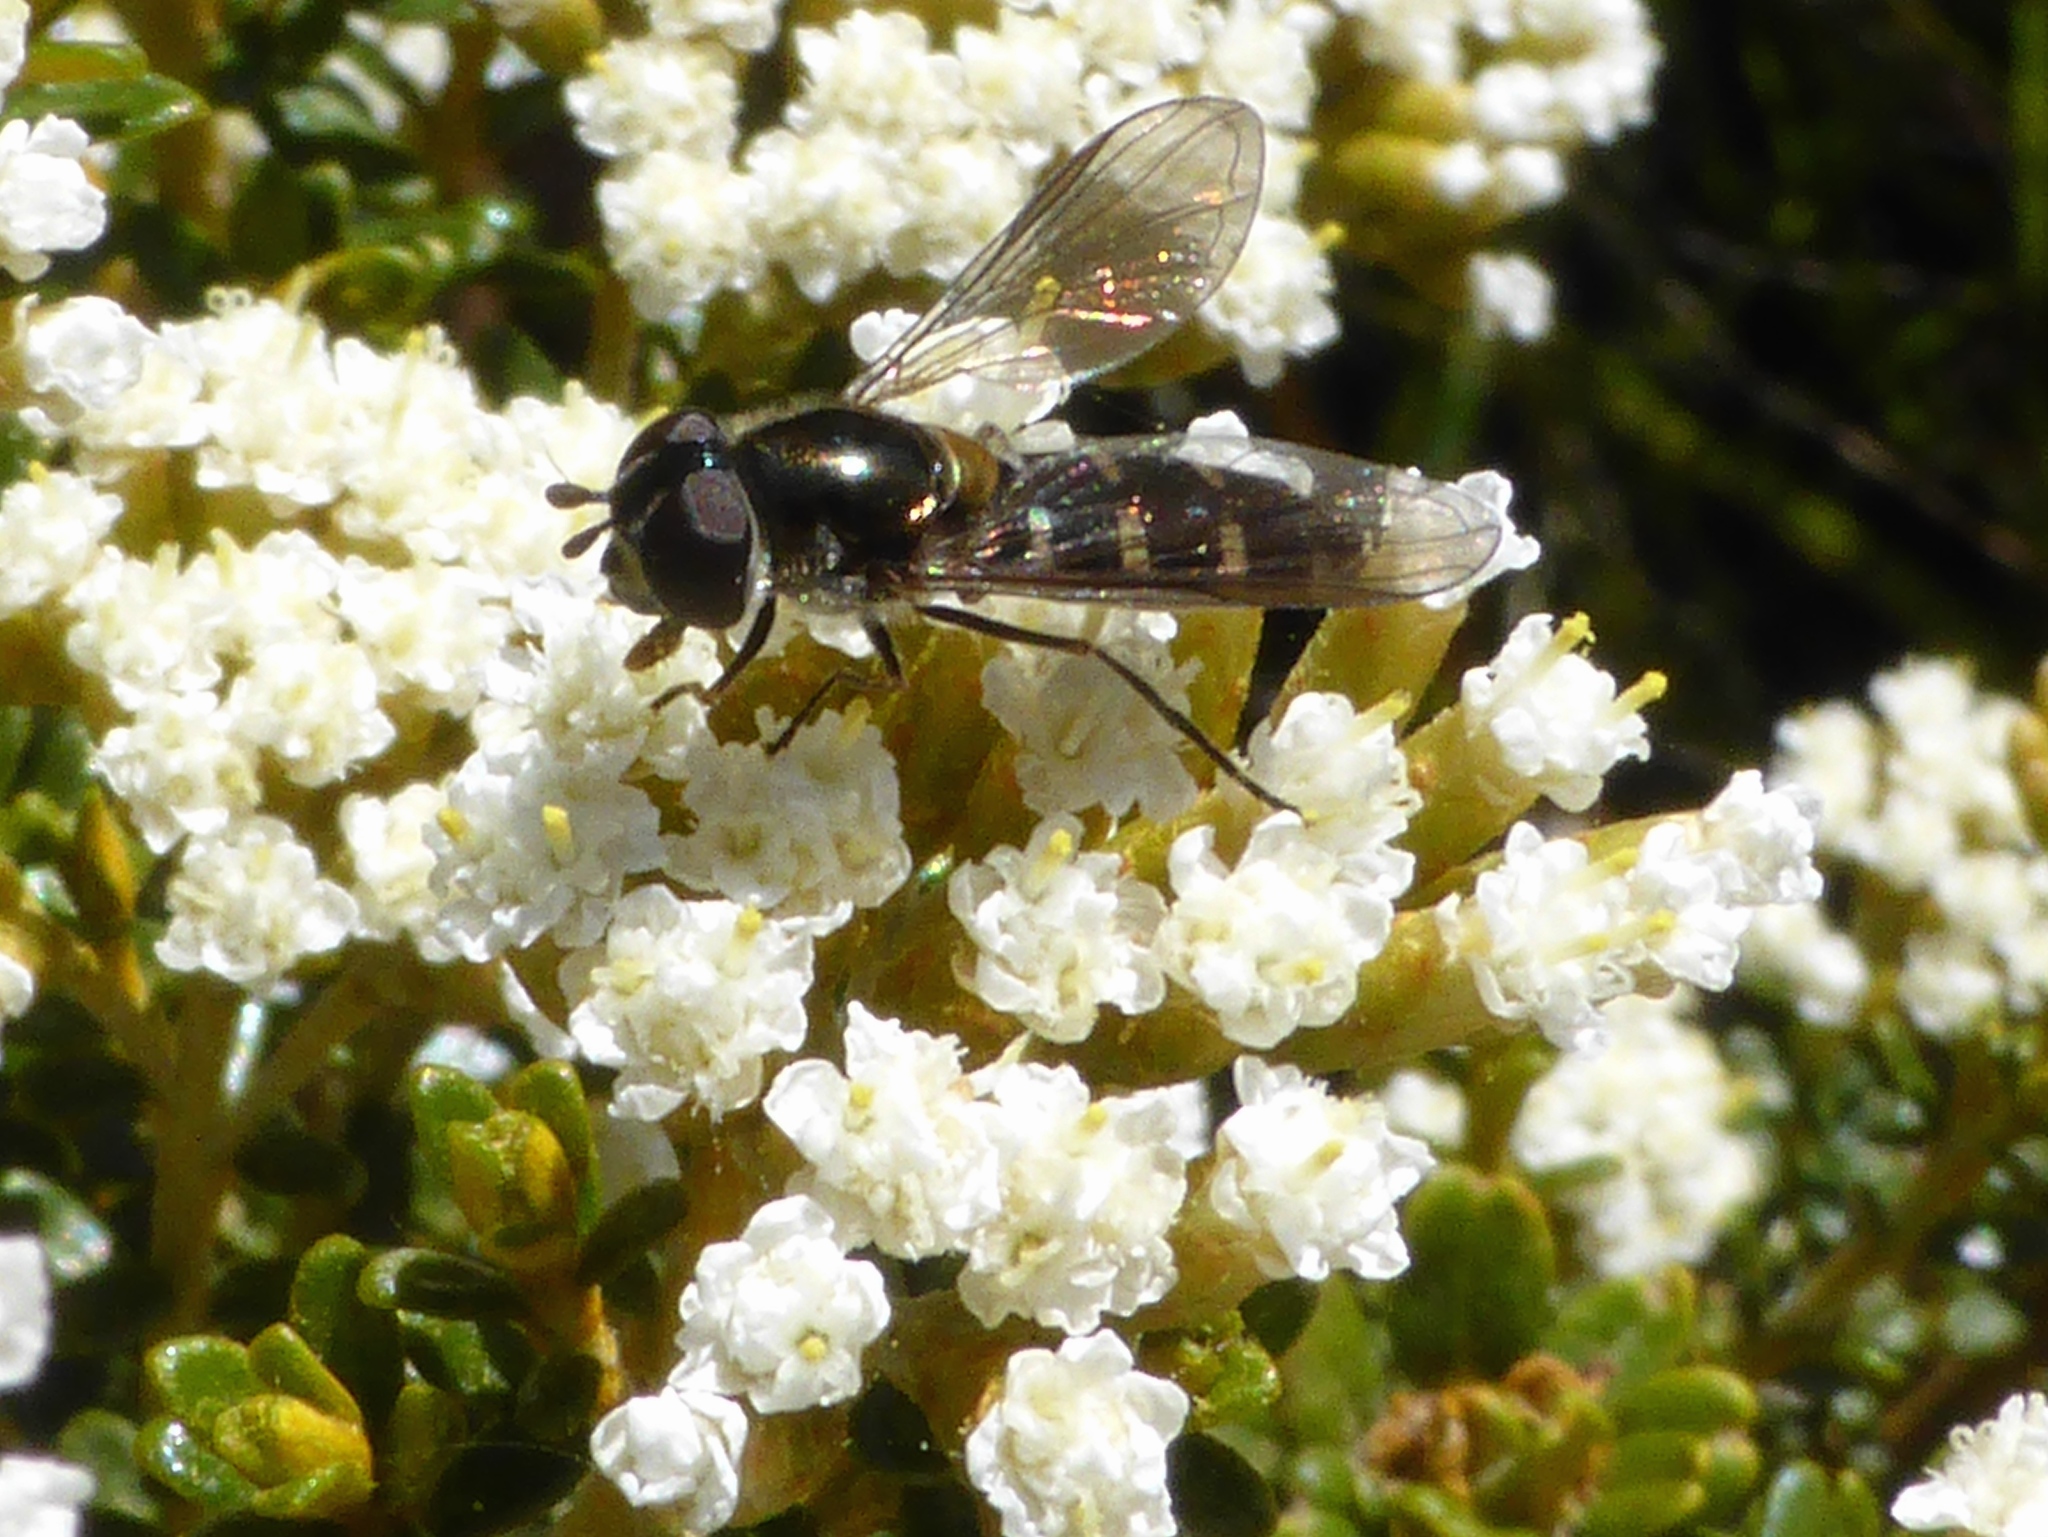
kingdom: Animalia
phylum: Arthropoda
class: Insecta
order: Diptera
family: Syrphidae
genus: Melangyna
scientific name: Melangyna novaezelandiae
